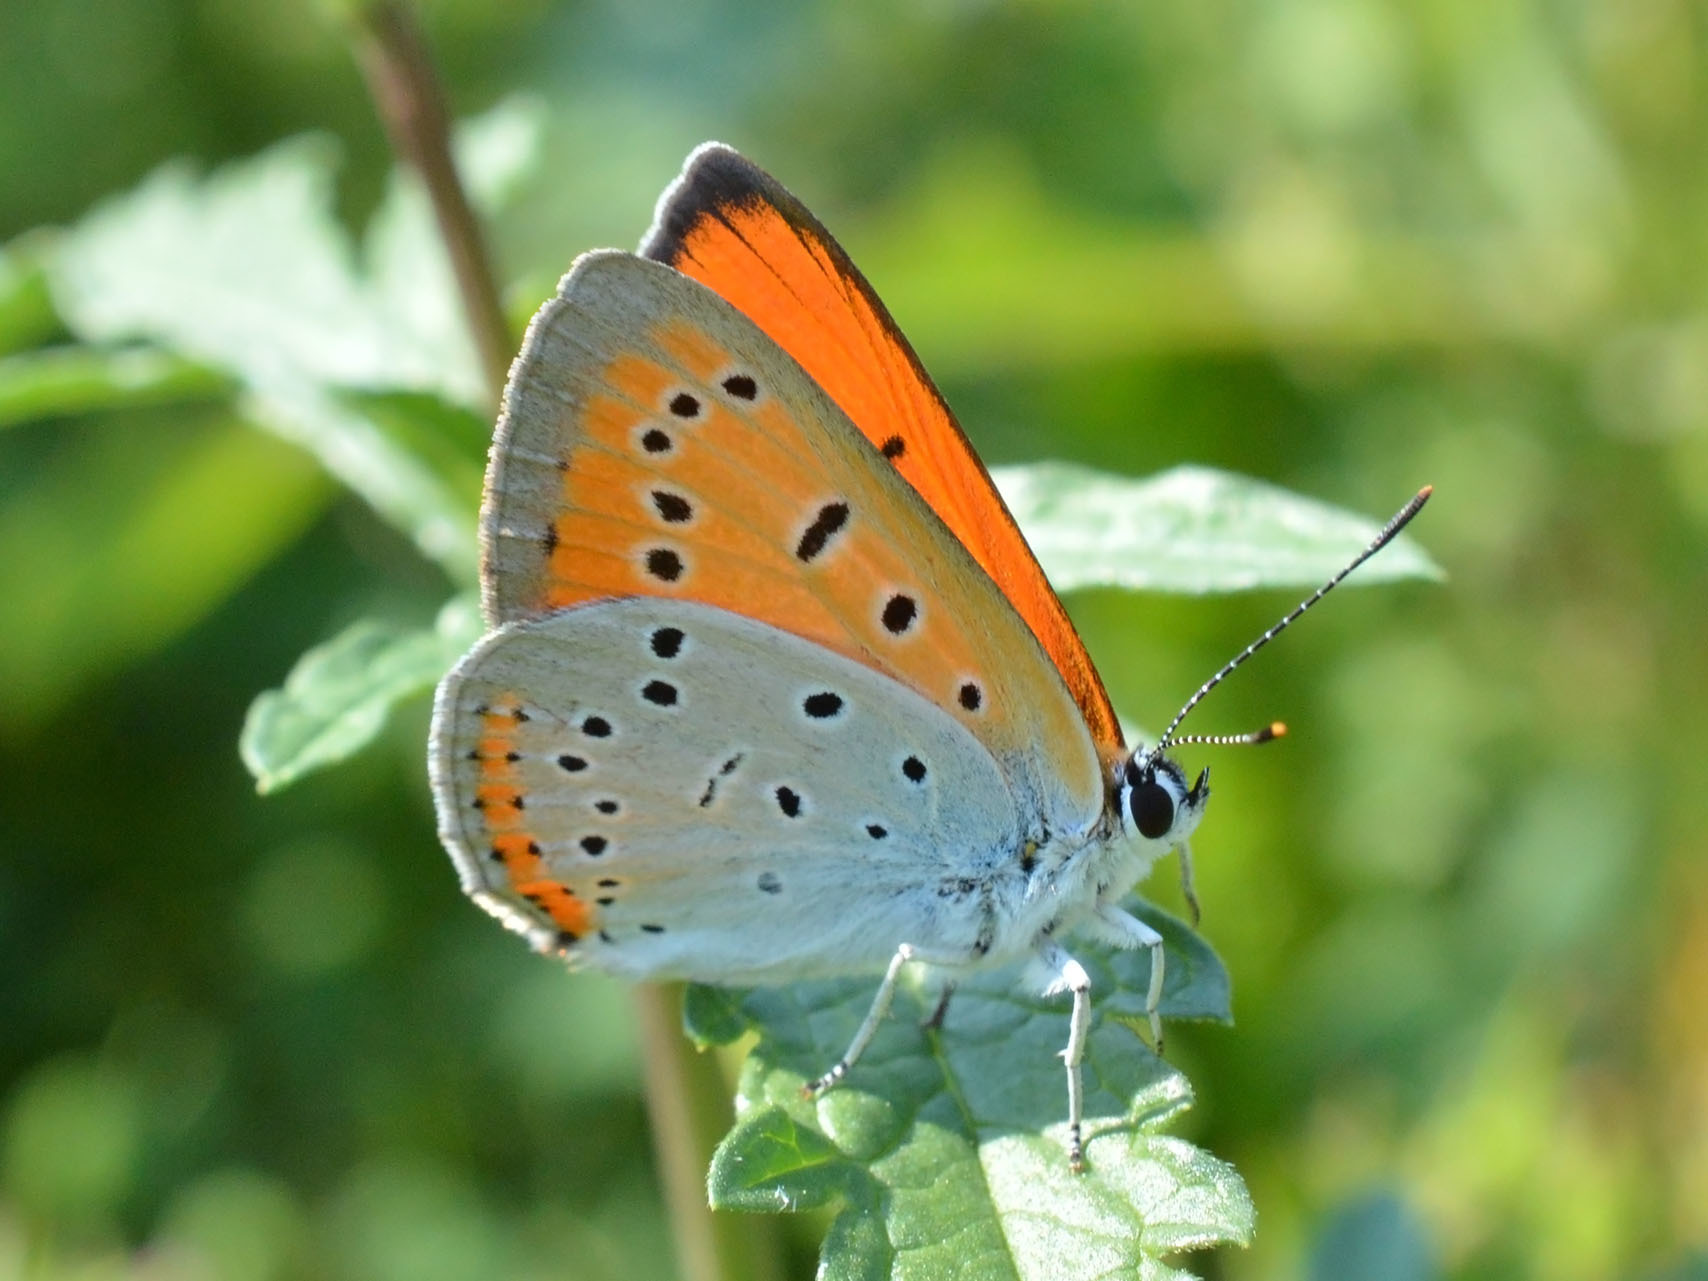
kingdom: Animalia
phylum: Arthropoda
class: Insecta
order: Lepidoptera
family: Lycaenidae
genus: Lycaena
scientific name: Lycaena dispar
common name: Large copper
